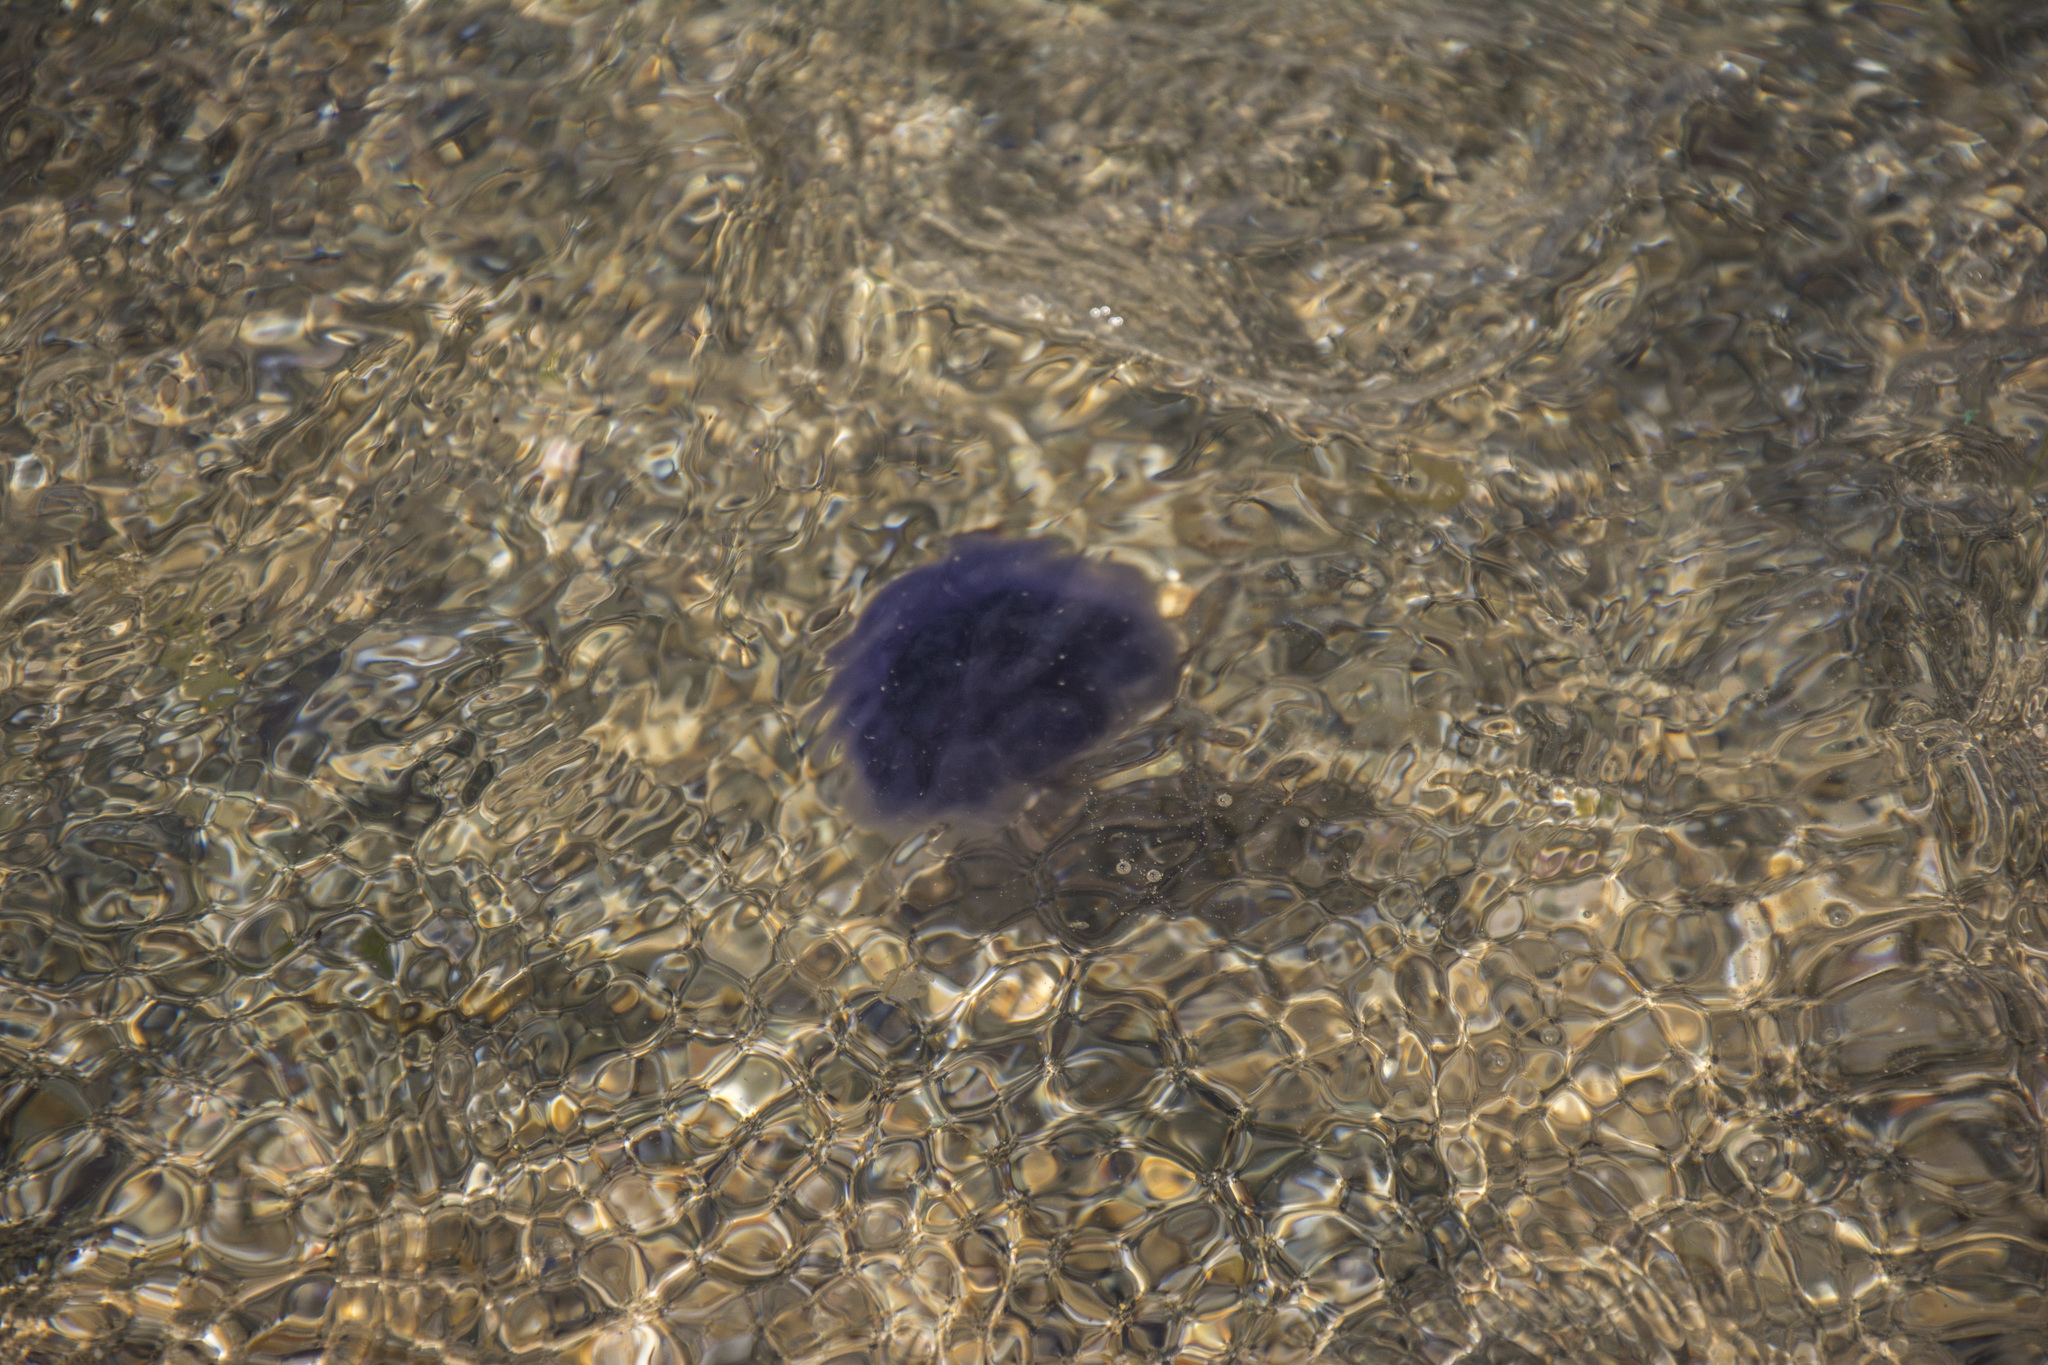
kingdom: Animalia
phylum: Cnidaria
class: Scyphozoa
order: Semaeostomeae
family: Cyaneidae
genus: Cyanea
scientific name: Cyanea lamarckii
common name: Blue jellyfish
